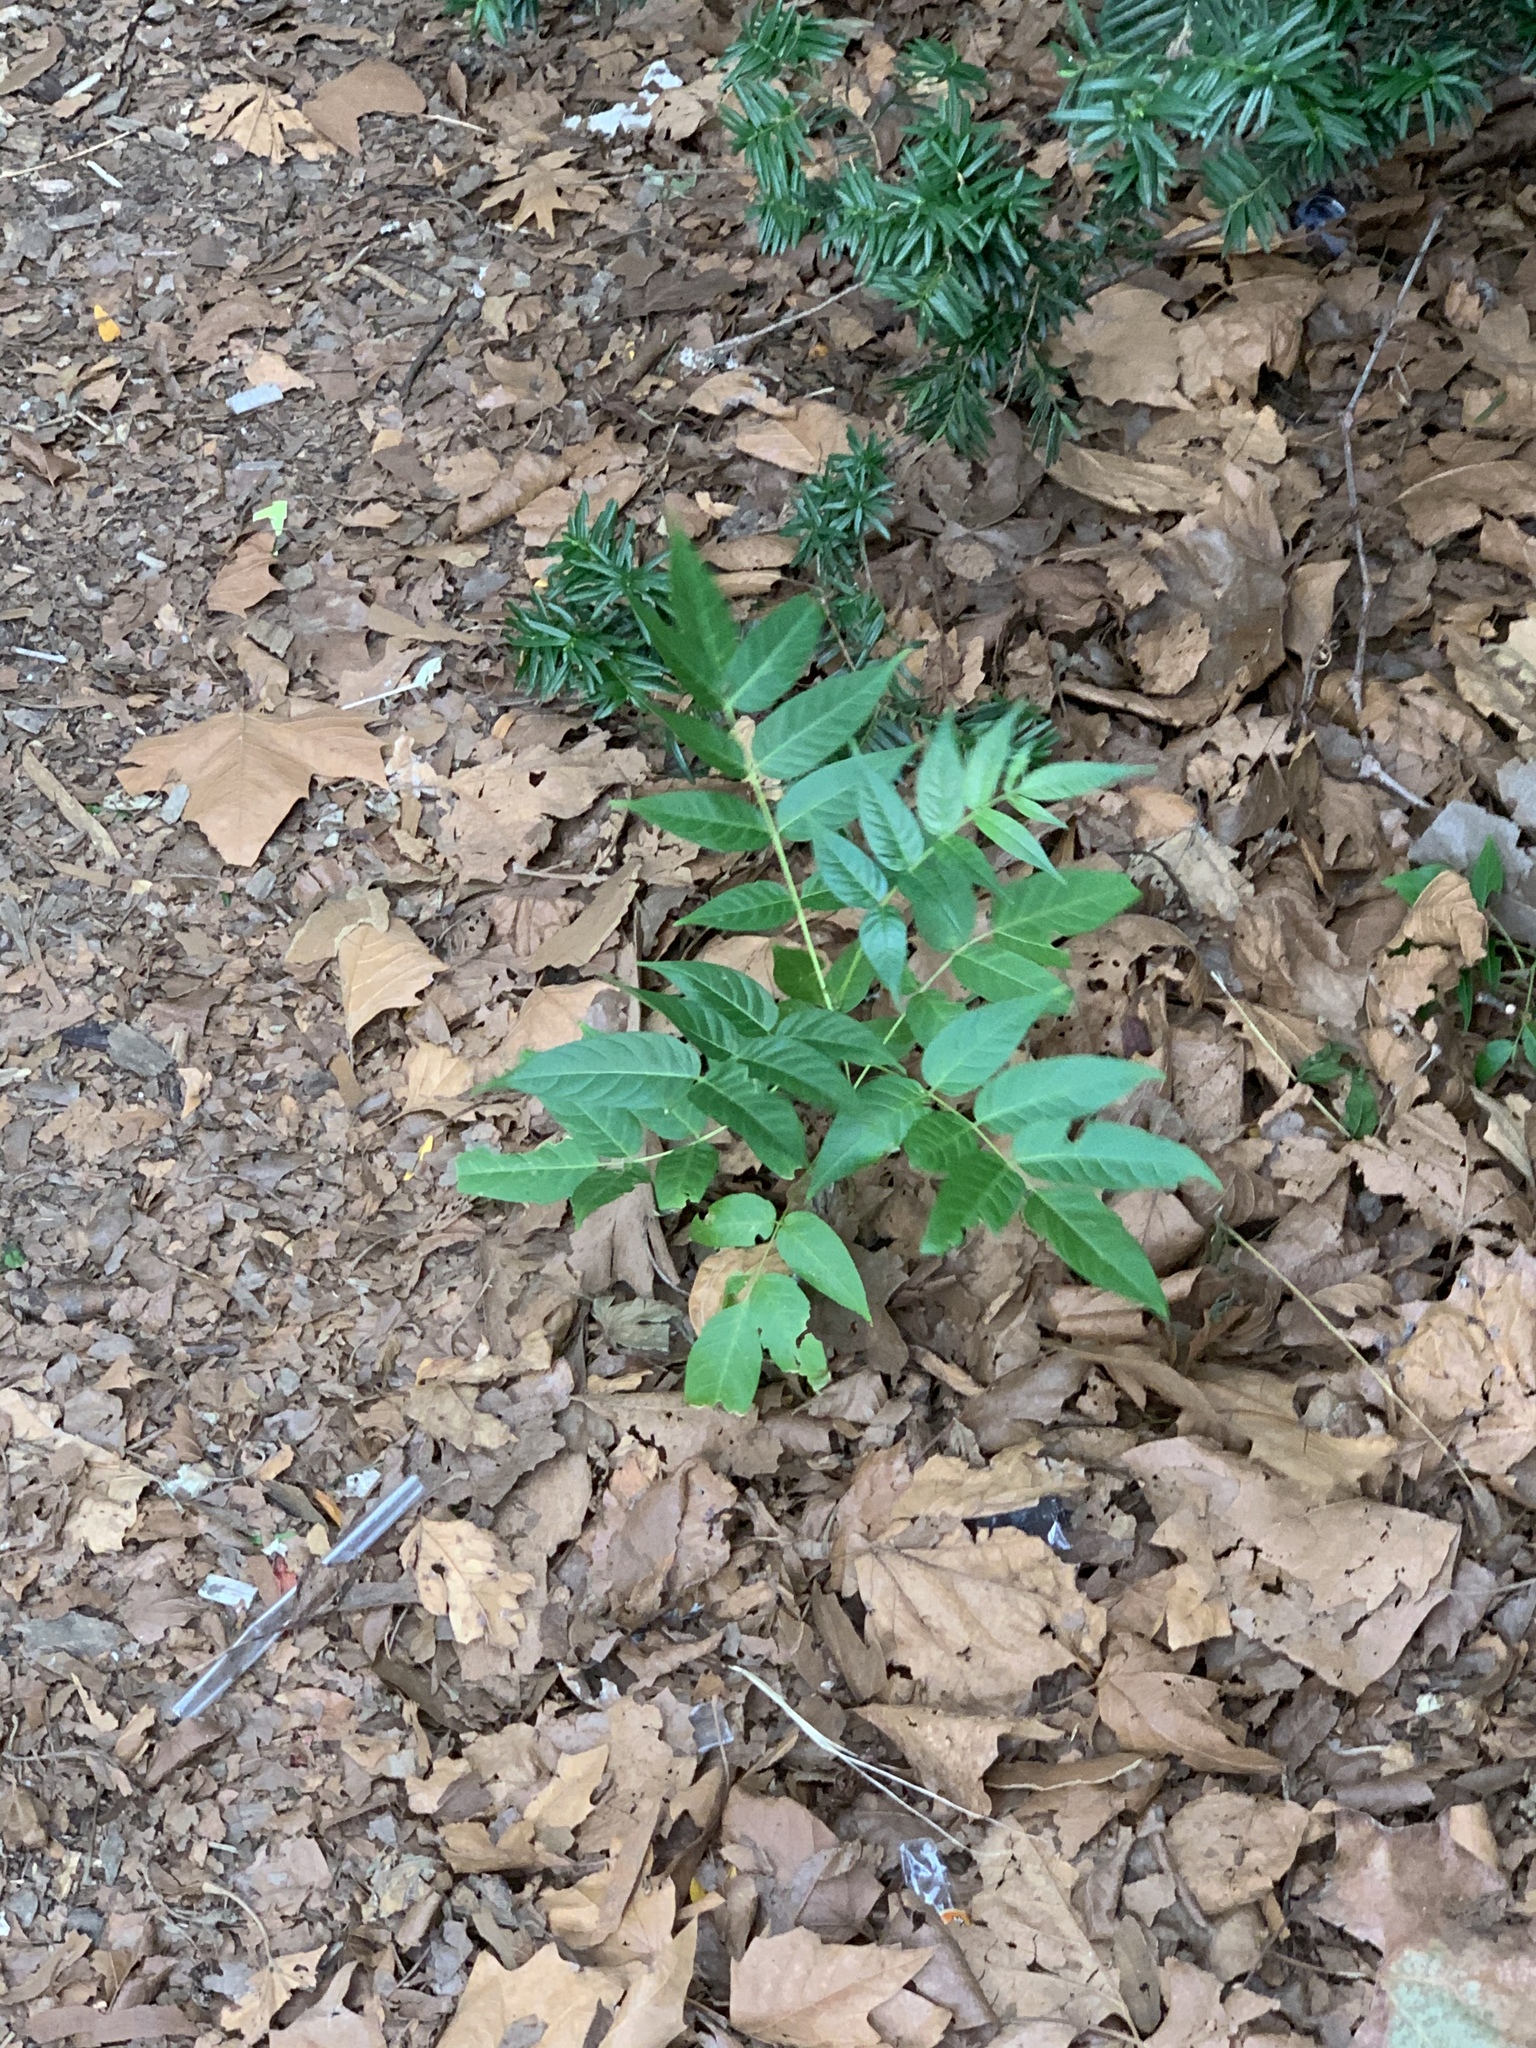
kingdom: Plantae
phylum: Tracheophyta
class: Magnoliopsida
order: Sapindales
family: Simaroubaceae
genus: Ailanthus
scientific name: Ailanthus altissima
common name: Tree-of-heaven
